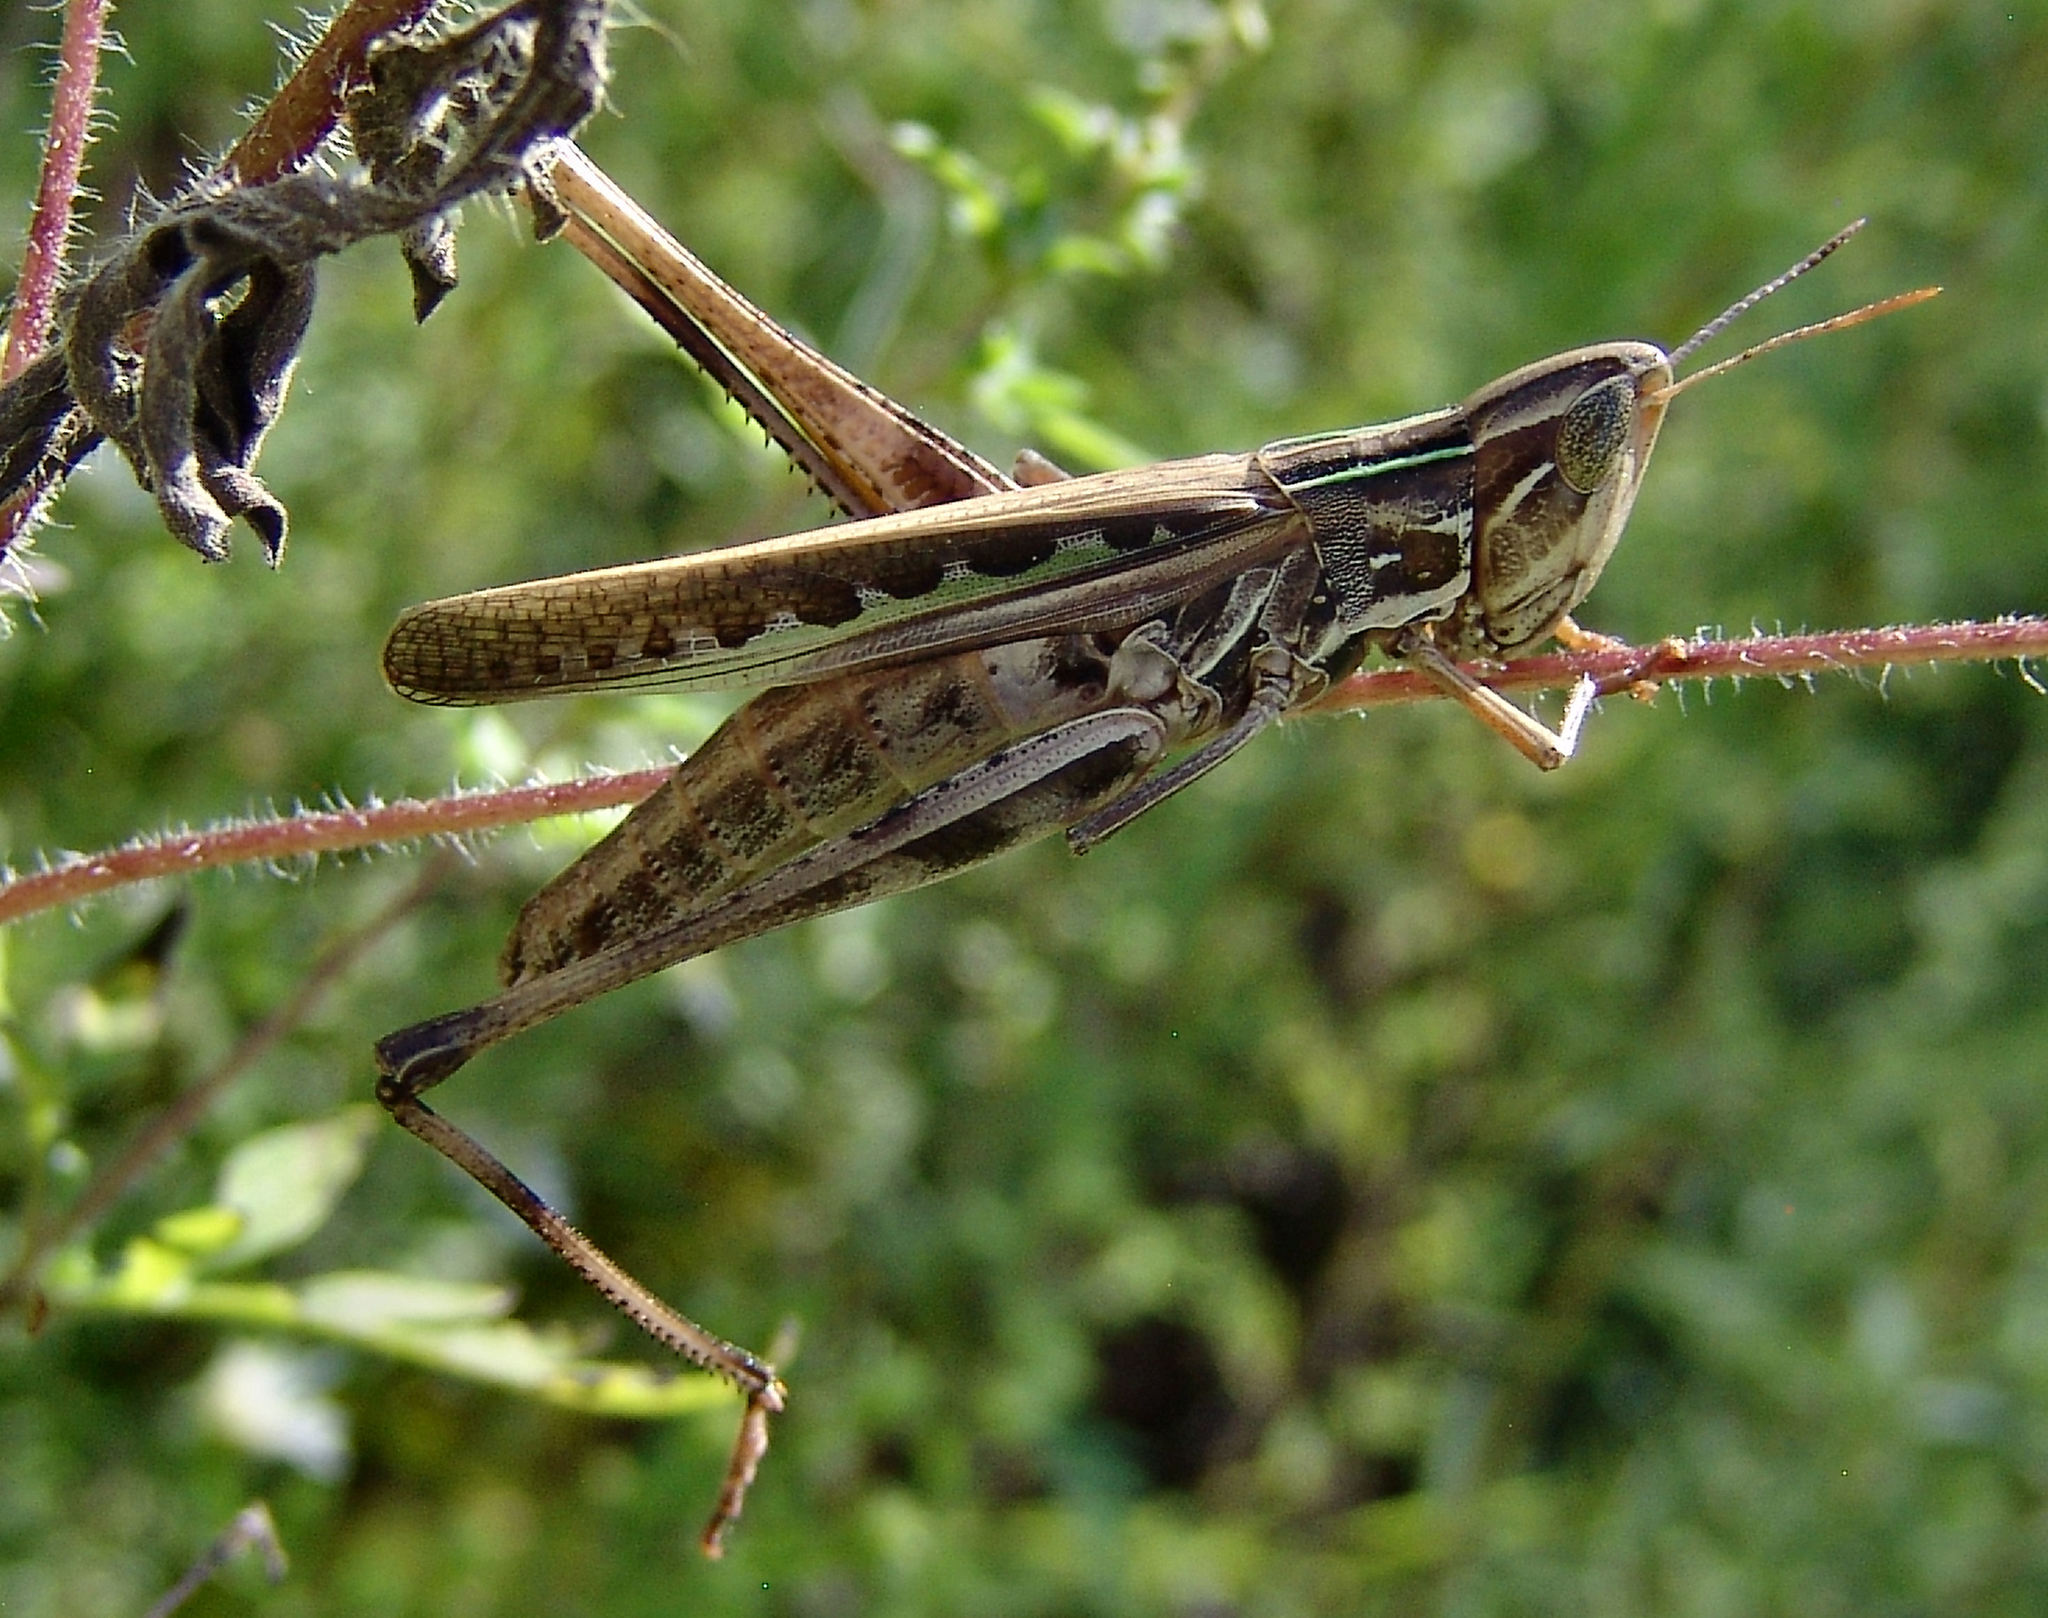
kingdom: Animalia
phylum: Arthropoda
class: Insecta
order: Orthoptera
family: Acrididae
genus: Syrbula
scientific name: Syrbula admirabilis
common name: Handsome grasshopper
